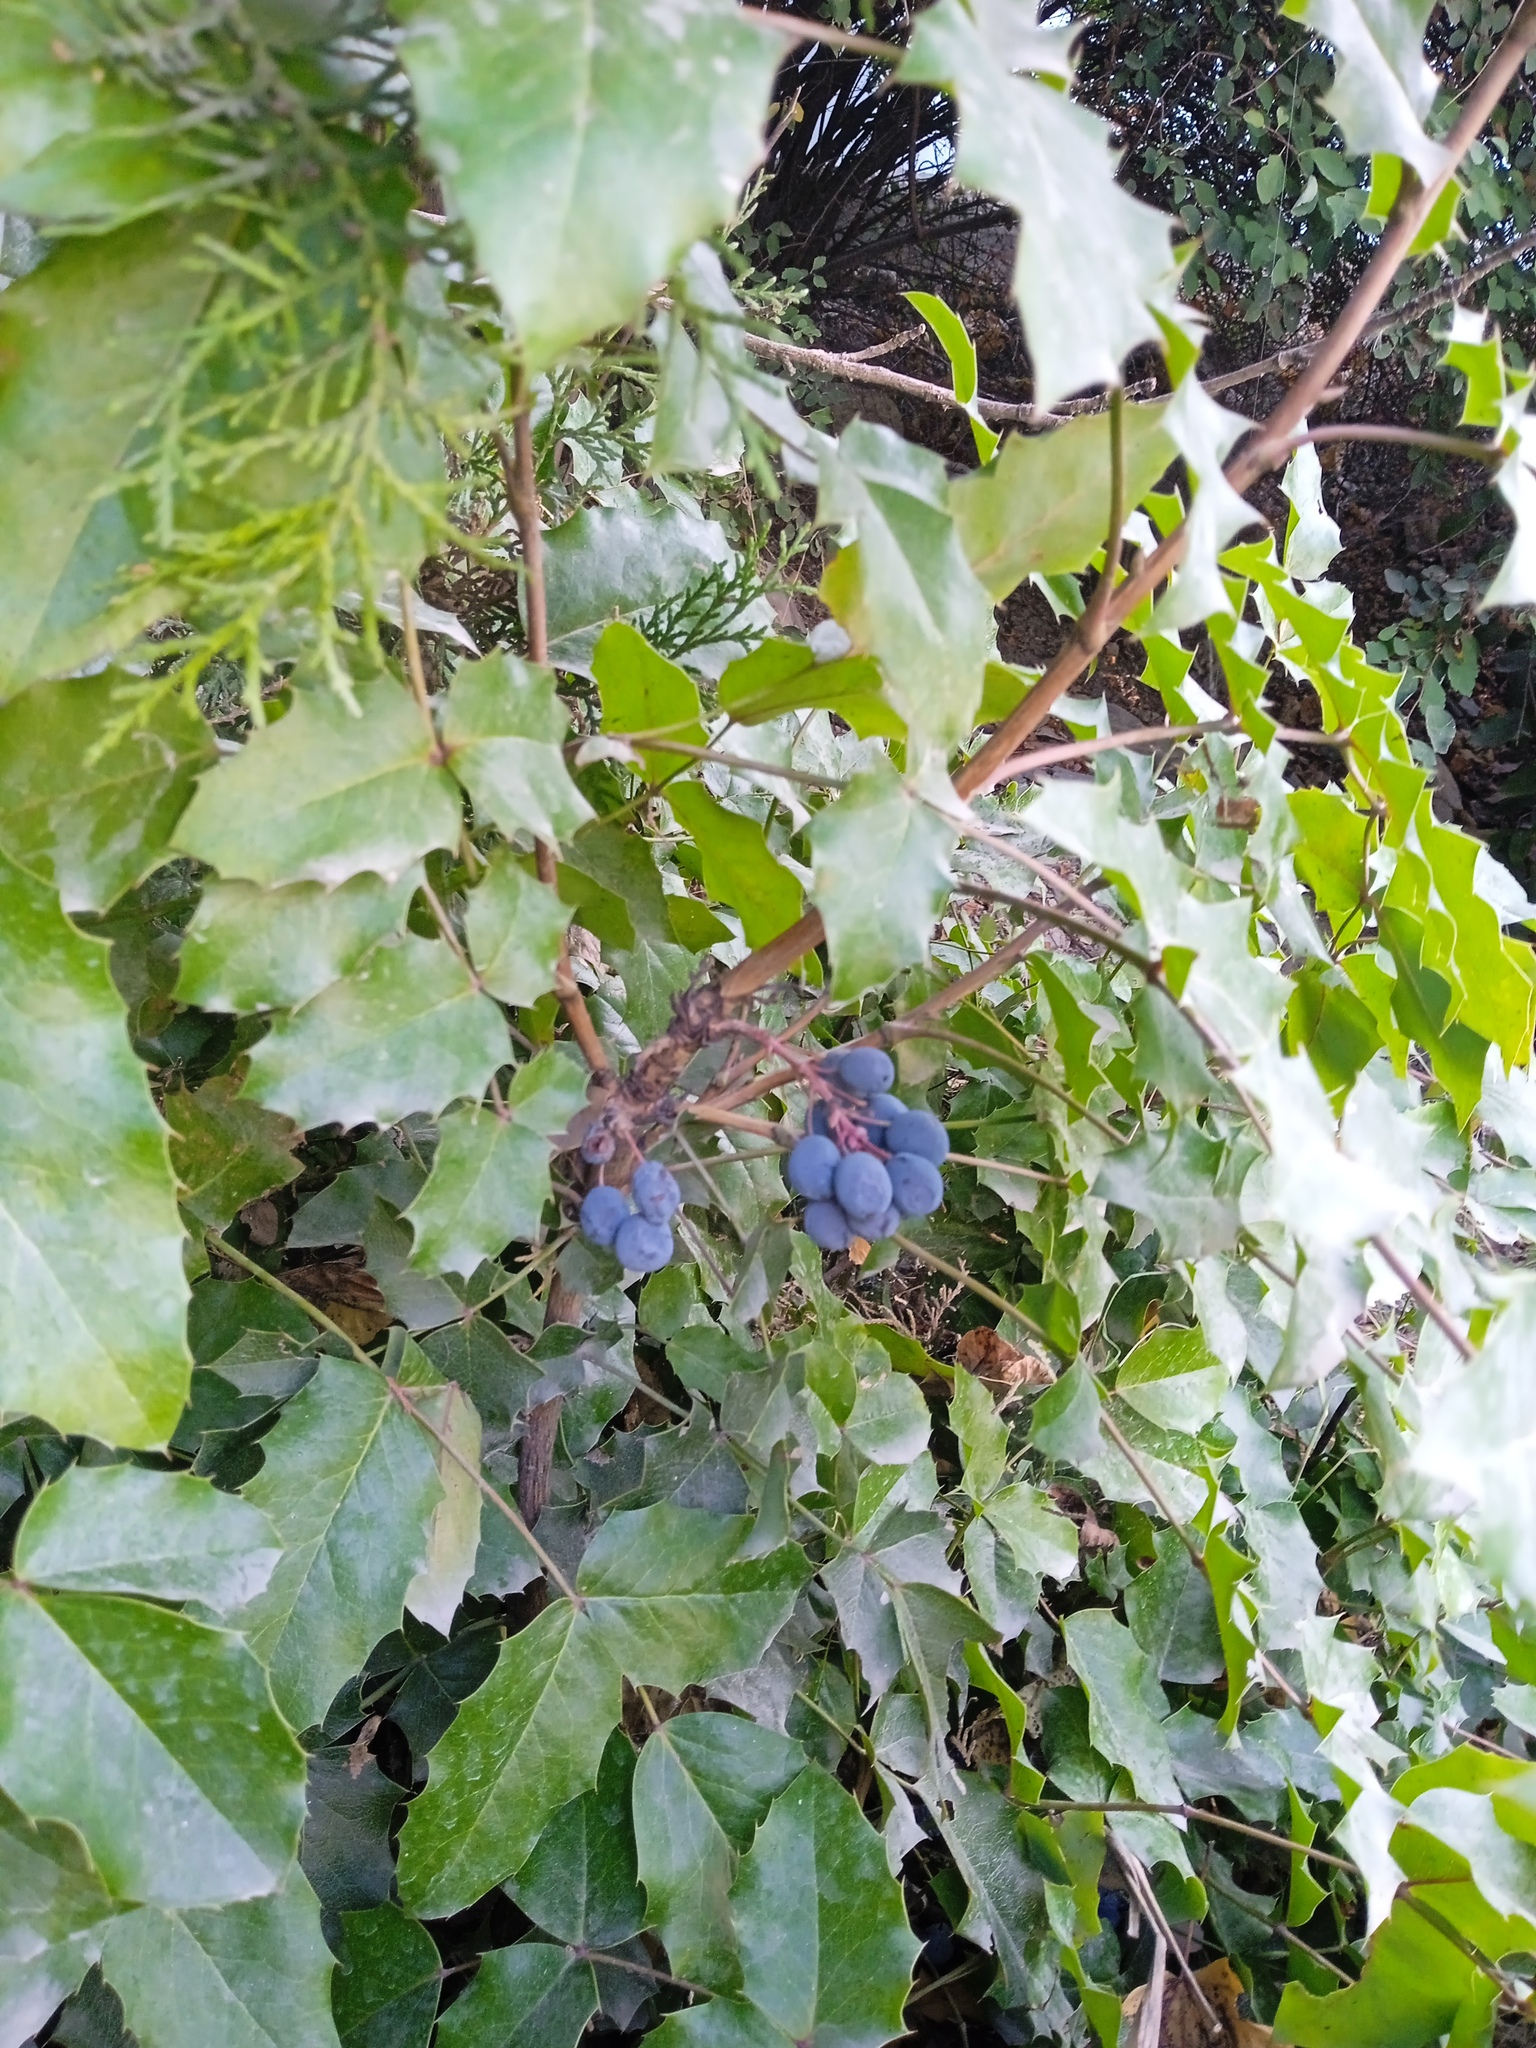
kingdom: Plantae
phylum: Tracheophyta
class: Magnoliopsida
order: Ranunculales
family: Berberidaceae
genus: Mahonia
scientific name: Mahonia aquifolium
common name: Oregon-grape
